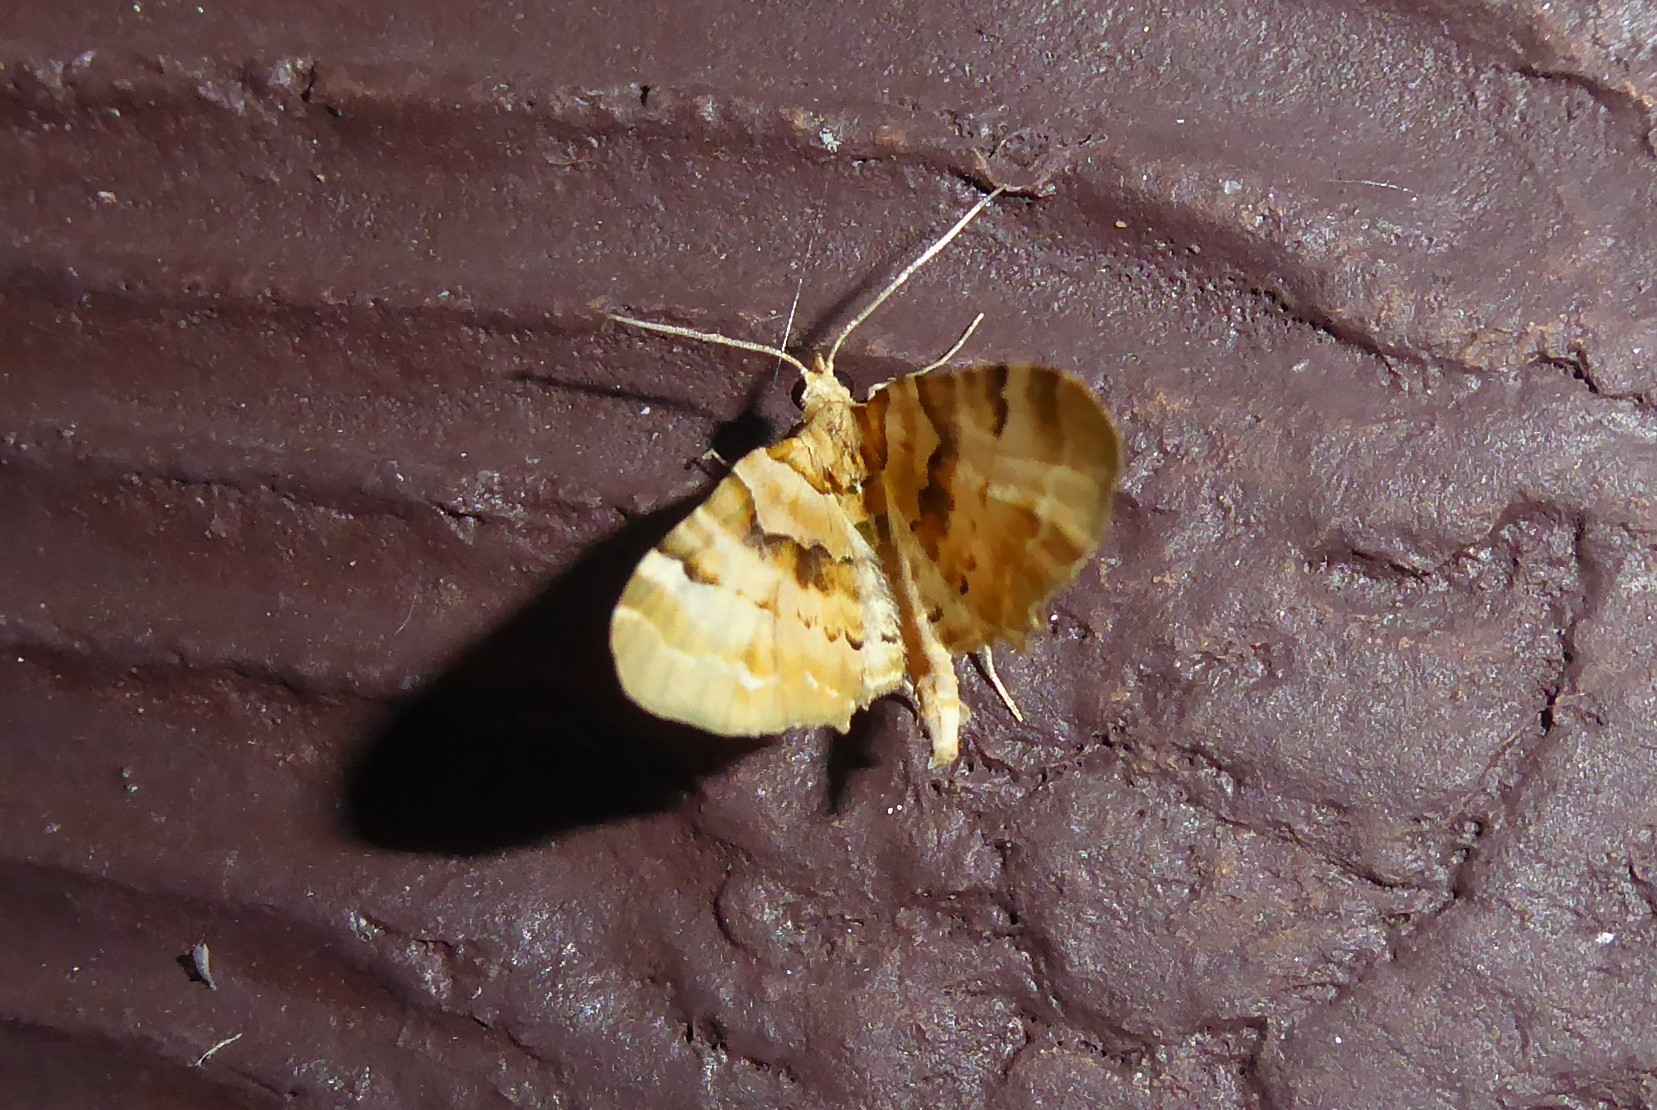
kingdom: Animalia
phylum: Arthropoda
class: Insecta
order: Lepidoptera
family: Geometridae
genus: Elvia
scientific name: Elvia glaucata
